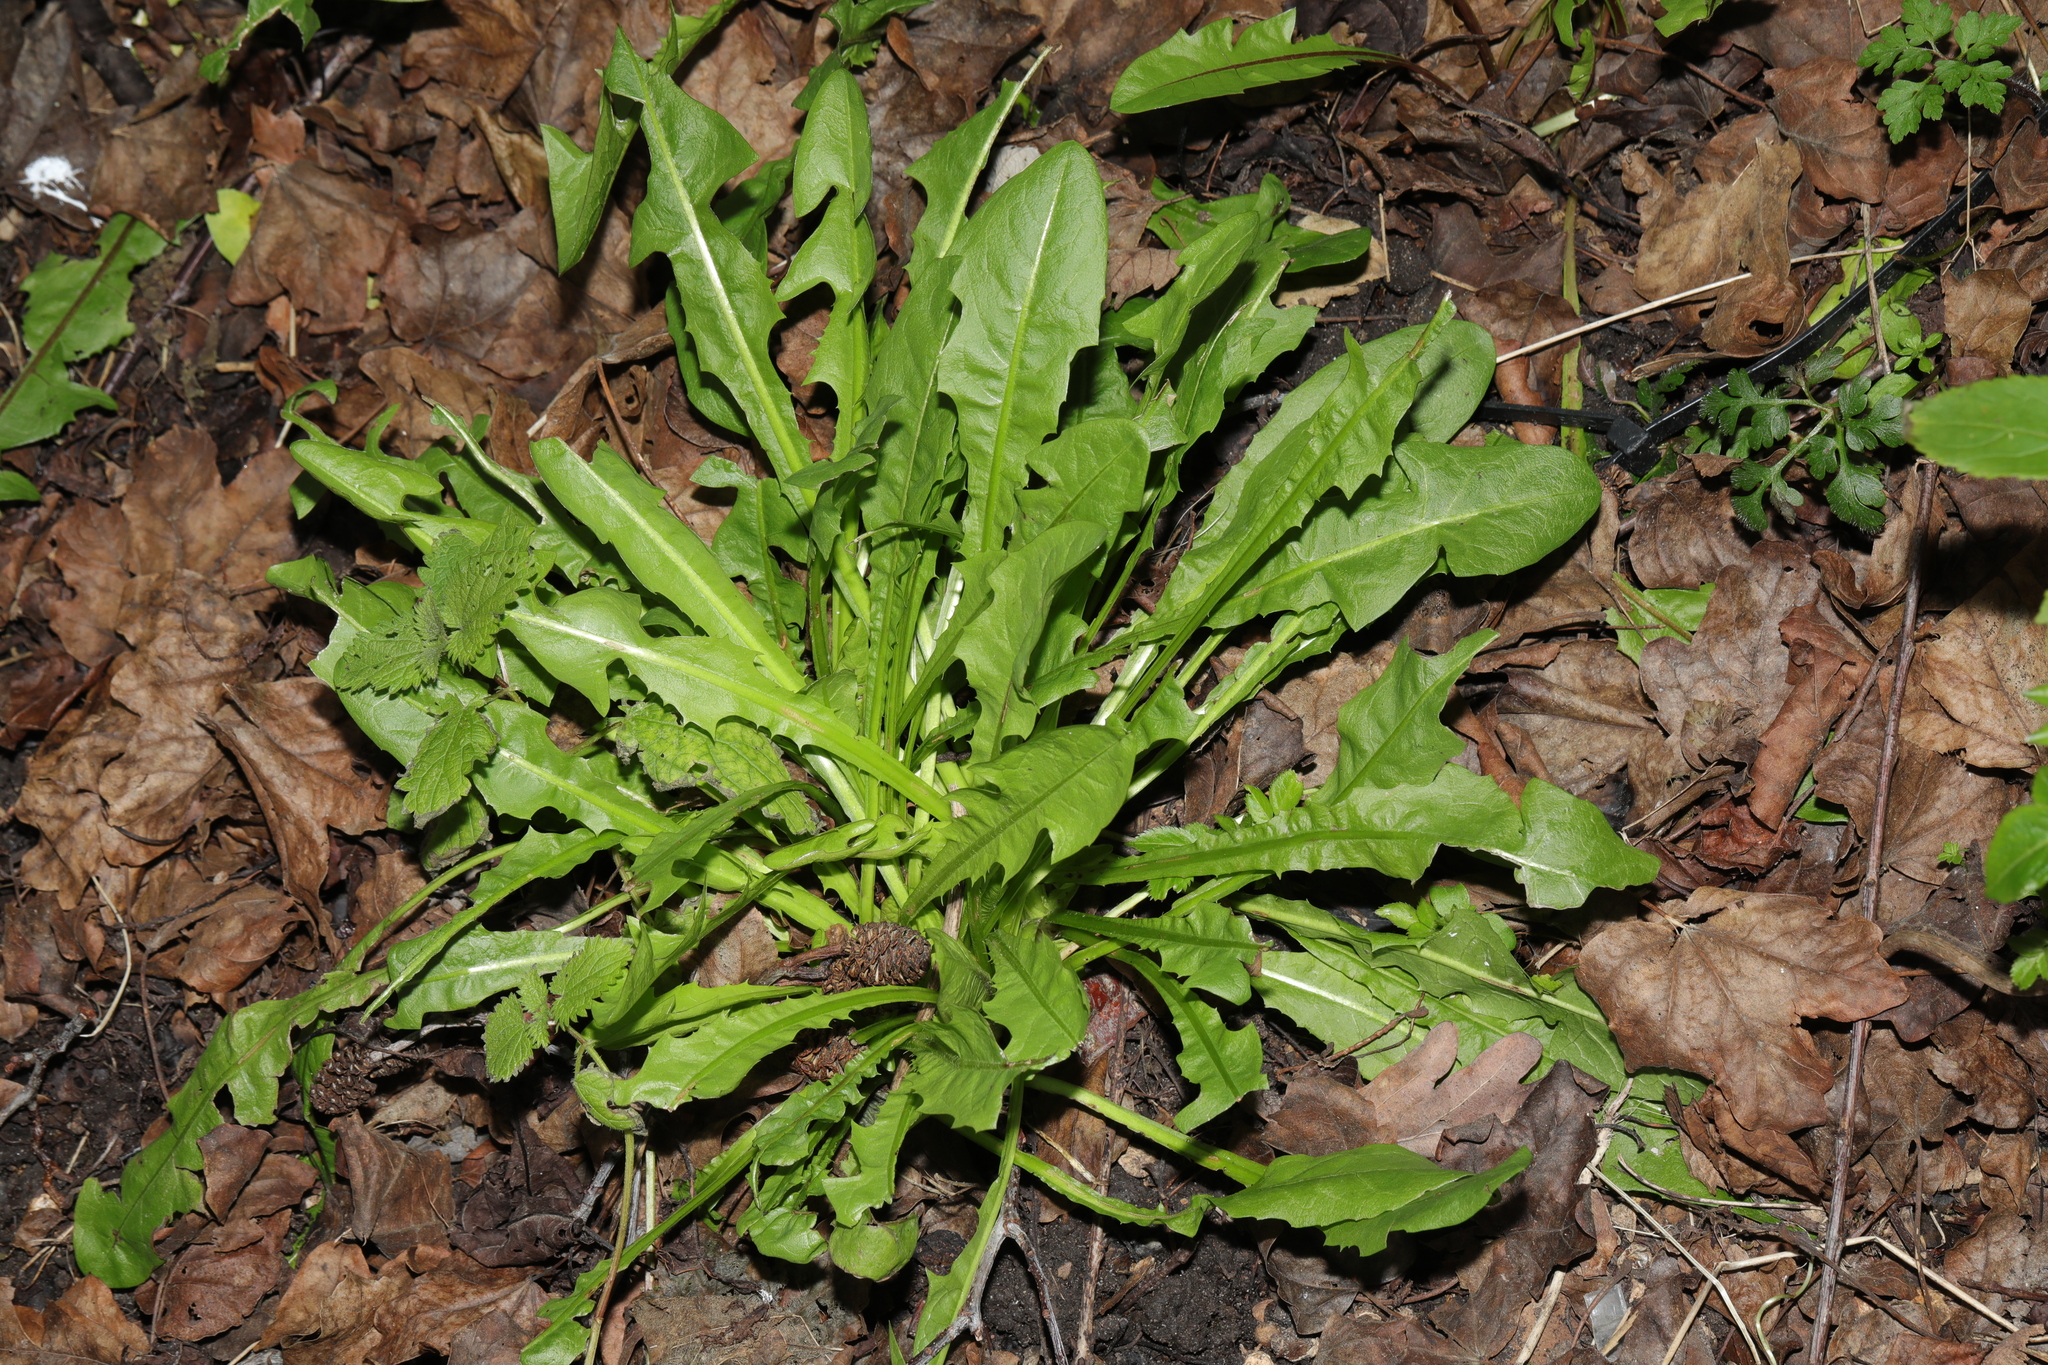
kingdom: Plantae
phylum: Tracheophyta
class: Magnoliopsida
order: Asterales
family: Asteraceae
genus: Taraxacum
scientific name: Taraxacum officinale
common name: Common dandelion
